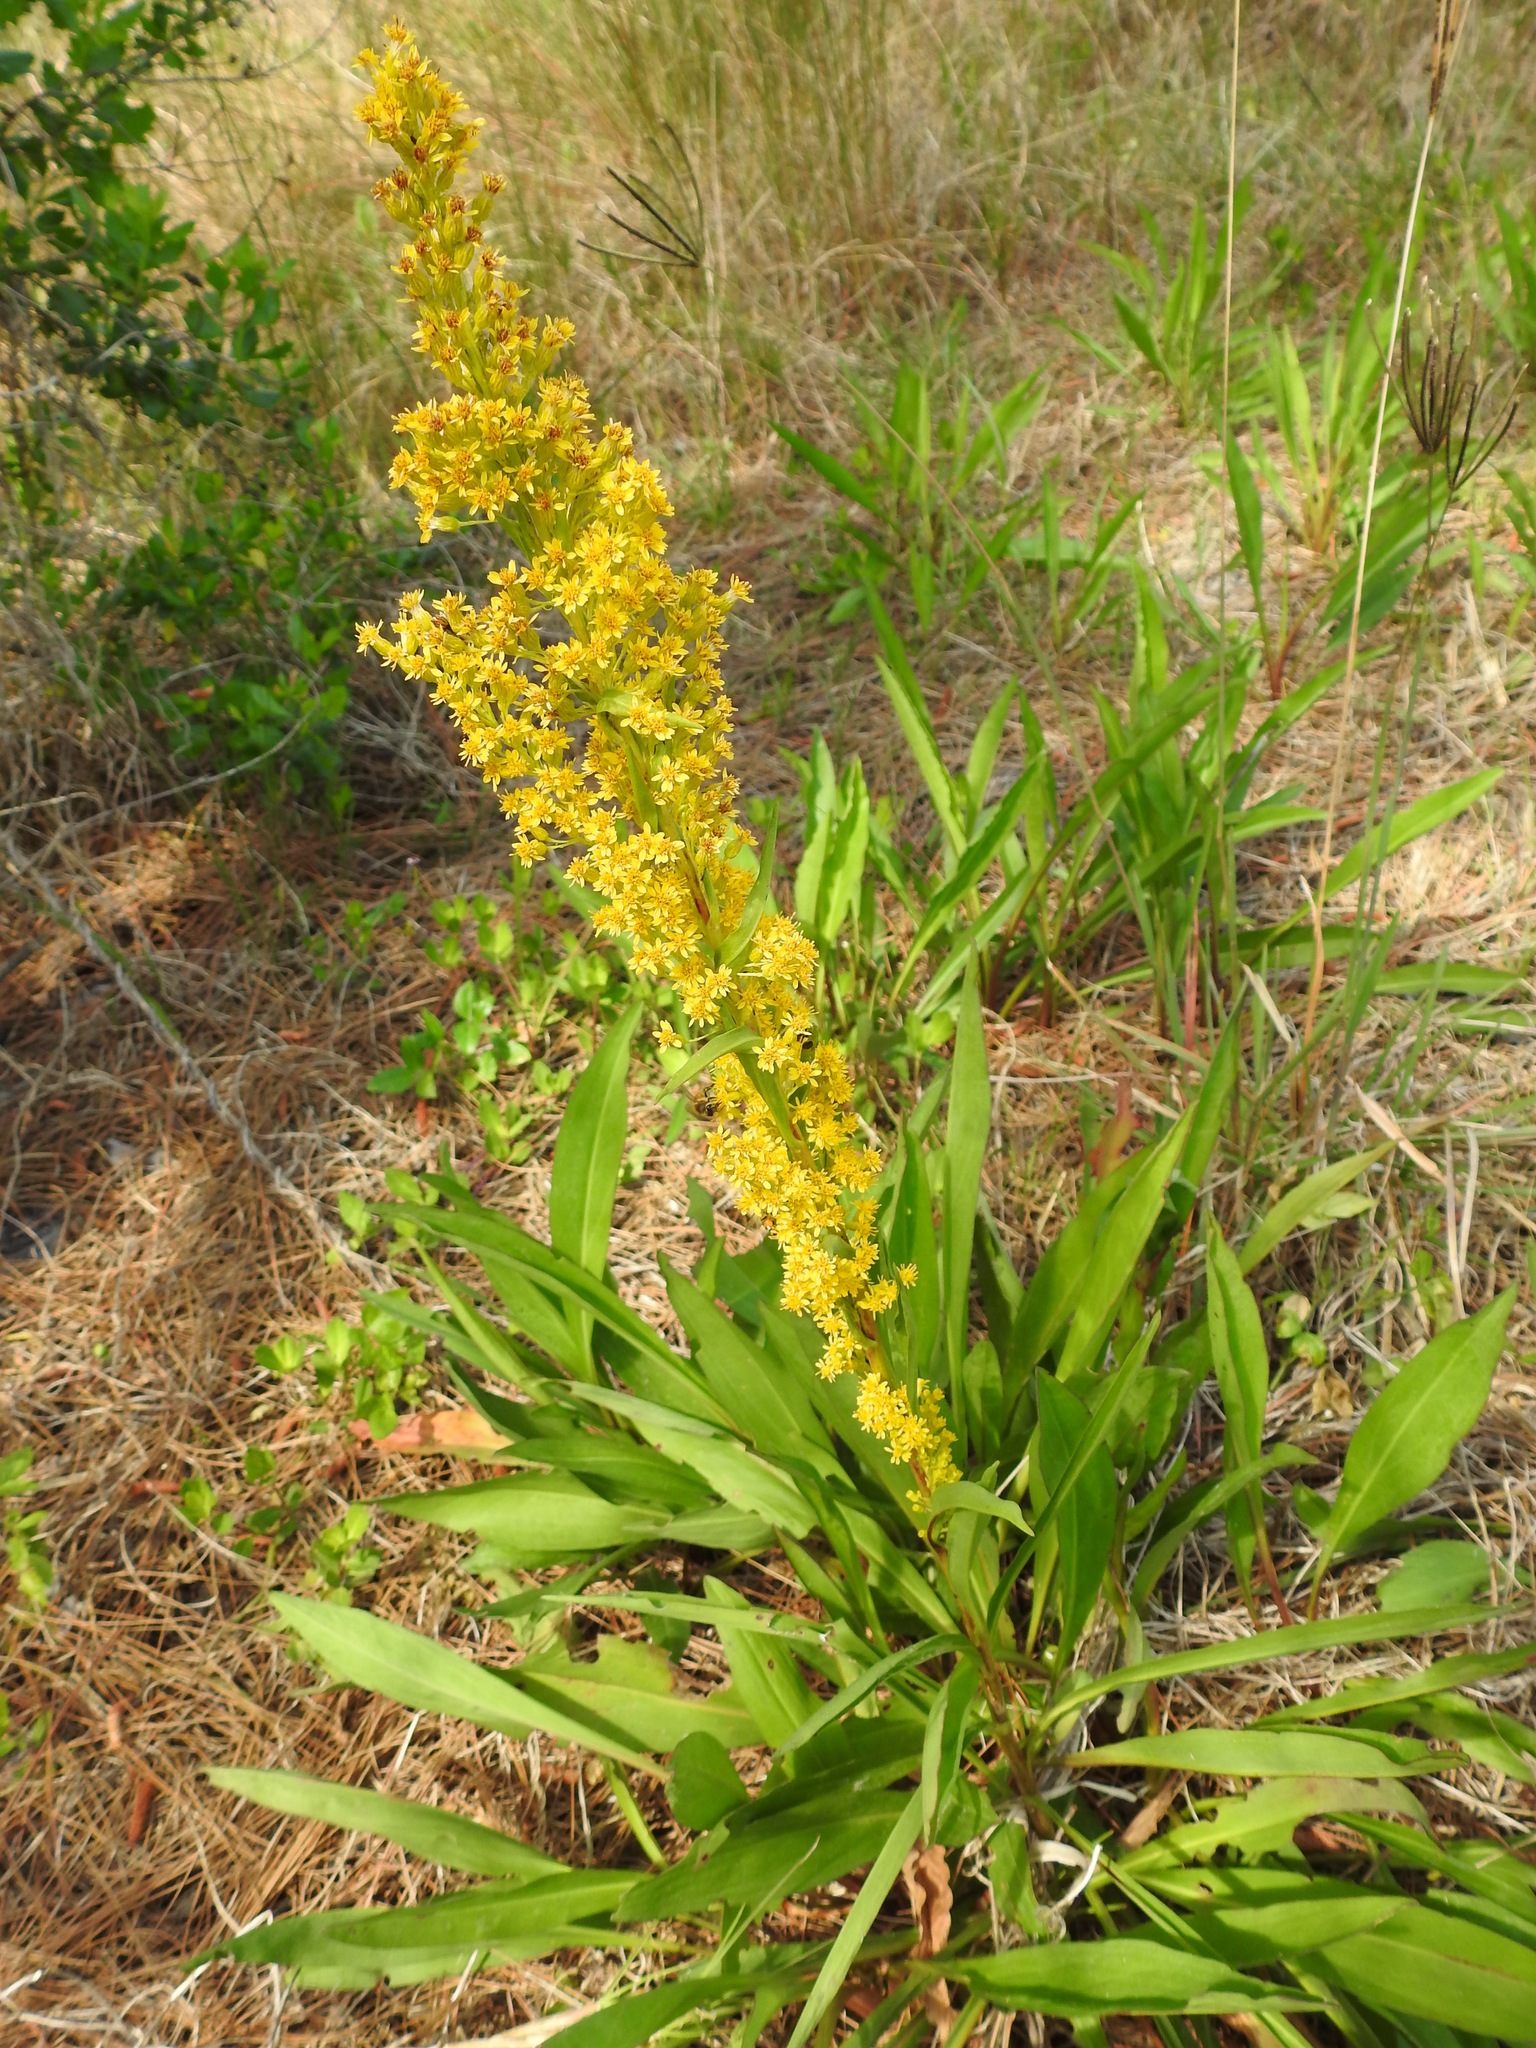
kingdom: Plantae
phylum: Tracheophyta
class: Magnoliopsida
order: Asterales
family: Asteraceae
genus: Solidago
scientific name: Solidago mexicana
